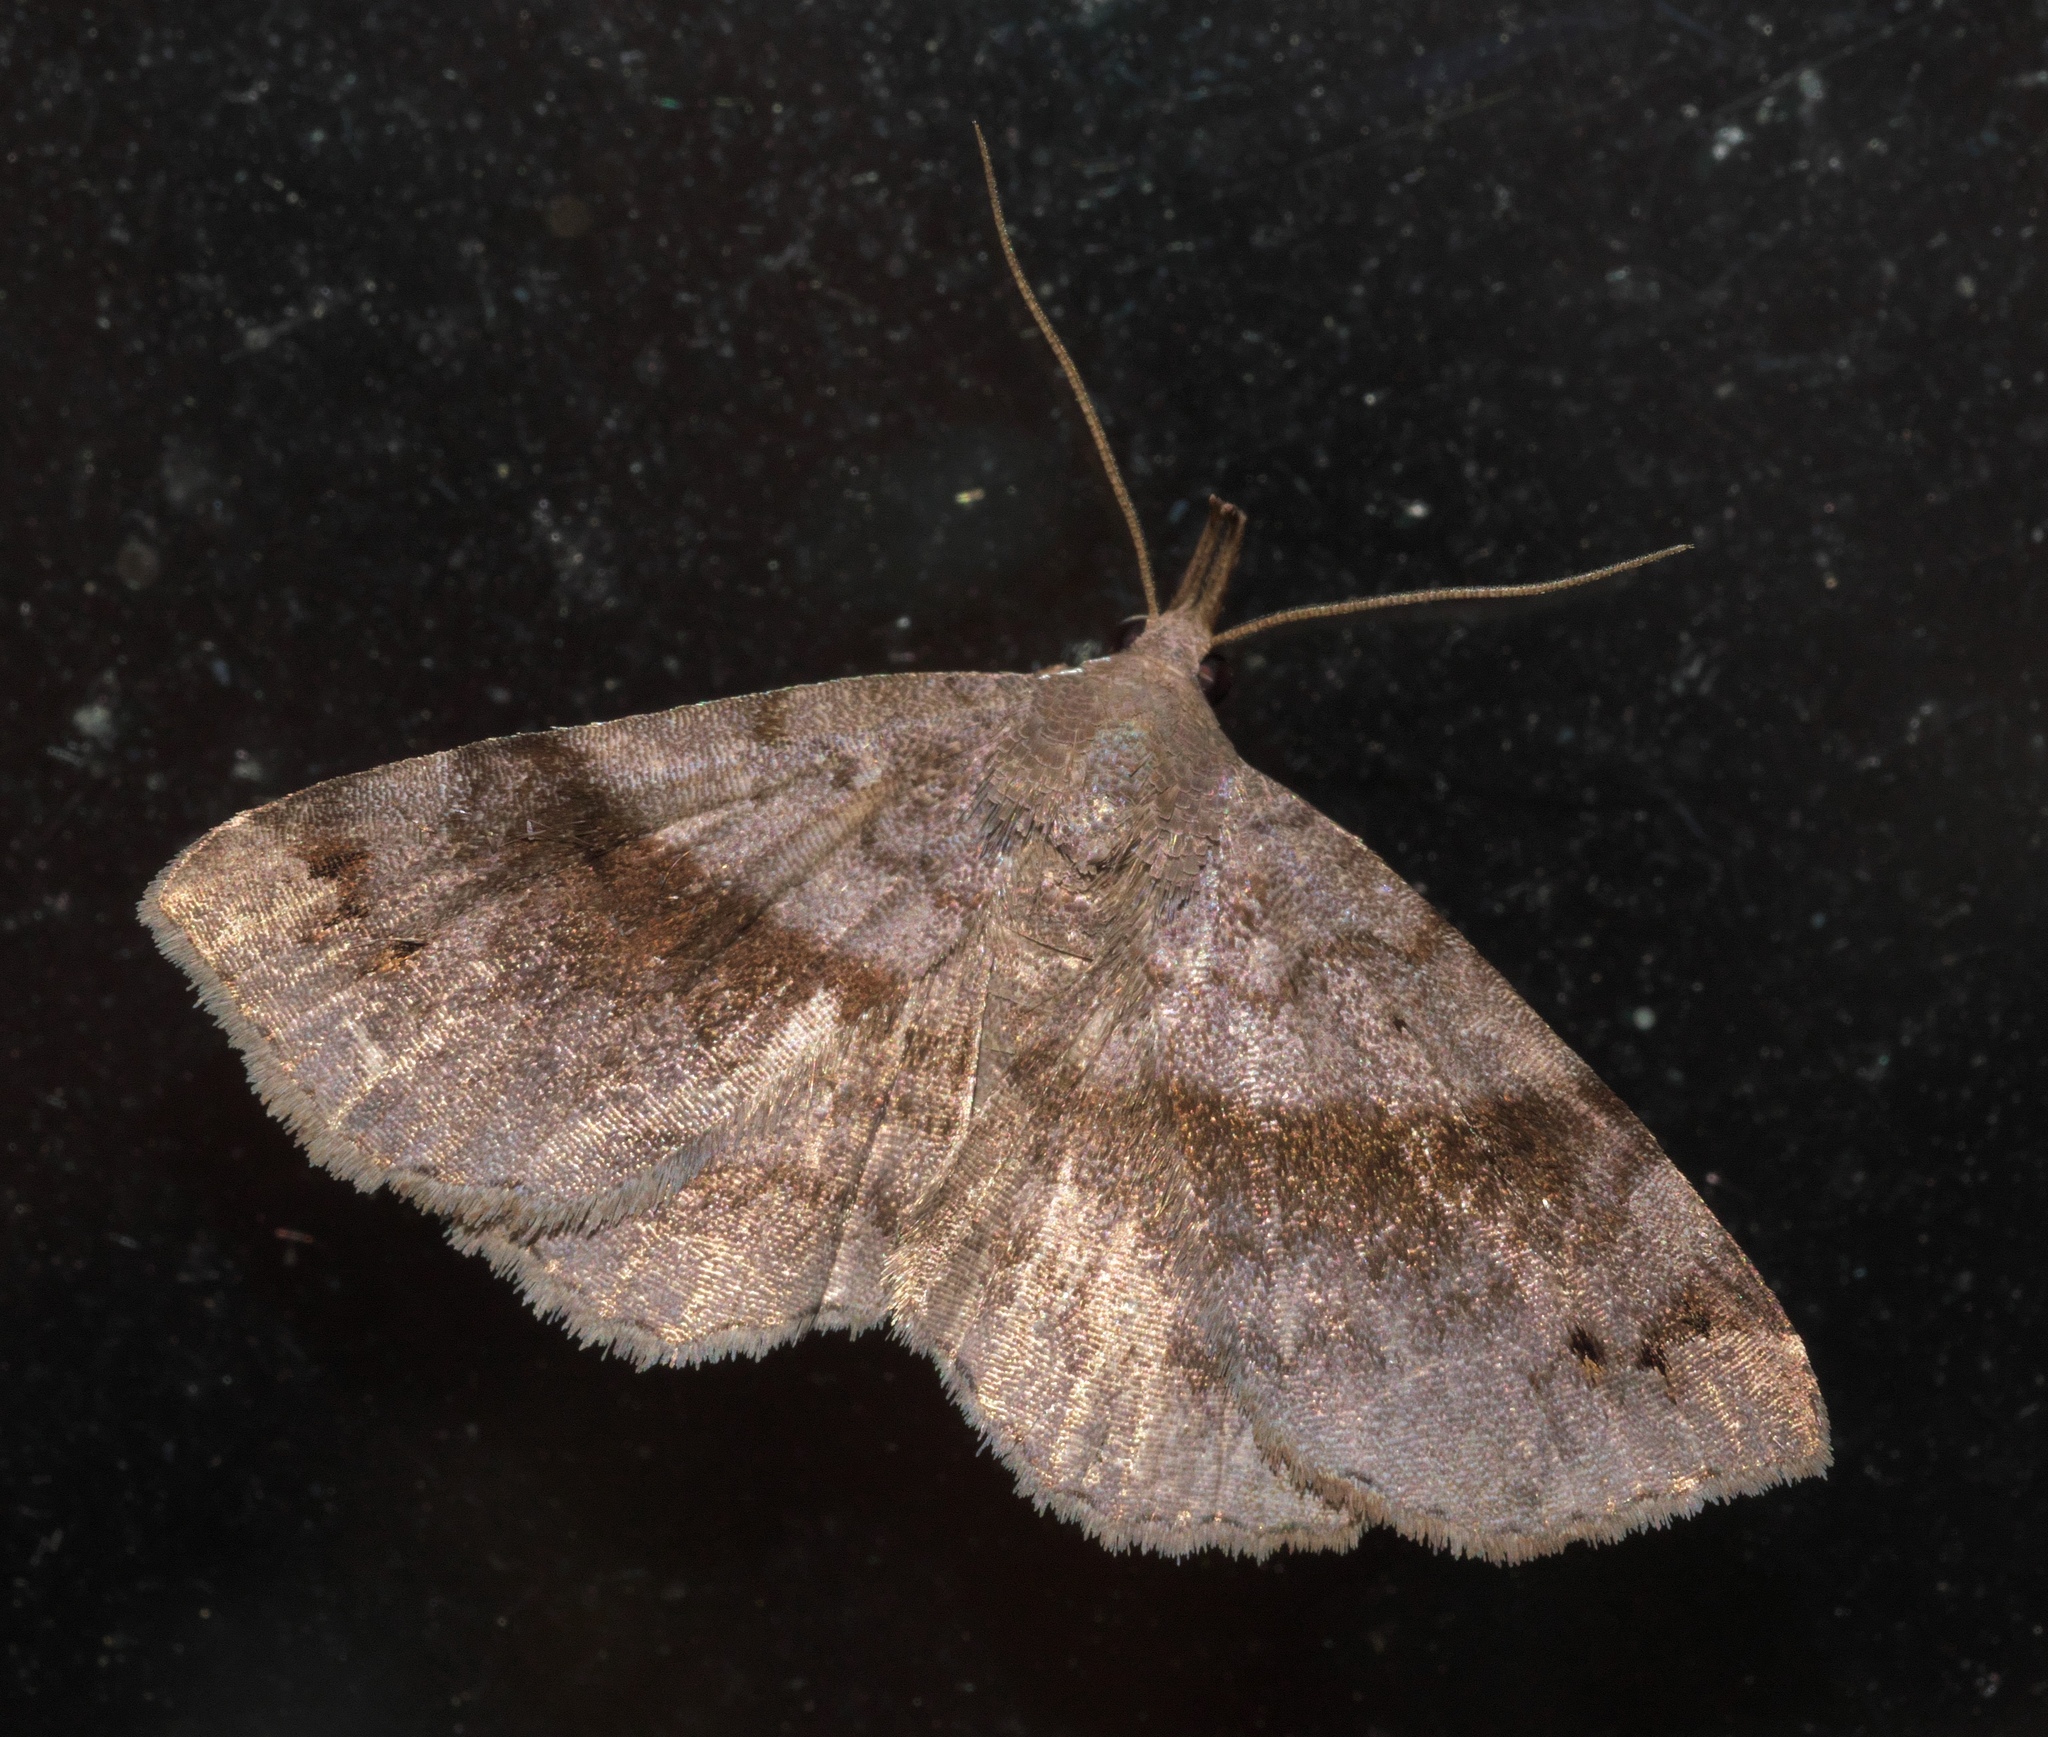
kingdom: Animalia
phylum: Arthropoda
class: Insecta
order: Lepidoptera
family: Erebidae
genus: Spargaloma
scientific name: Spargaloma sexpunctata
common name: Six-spotted gray
